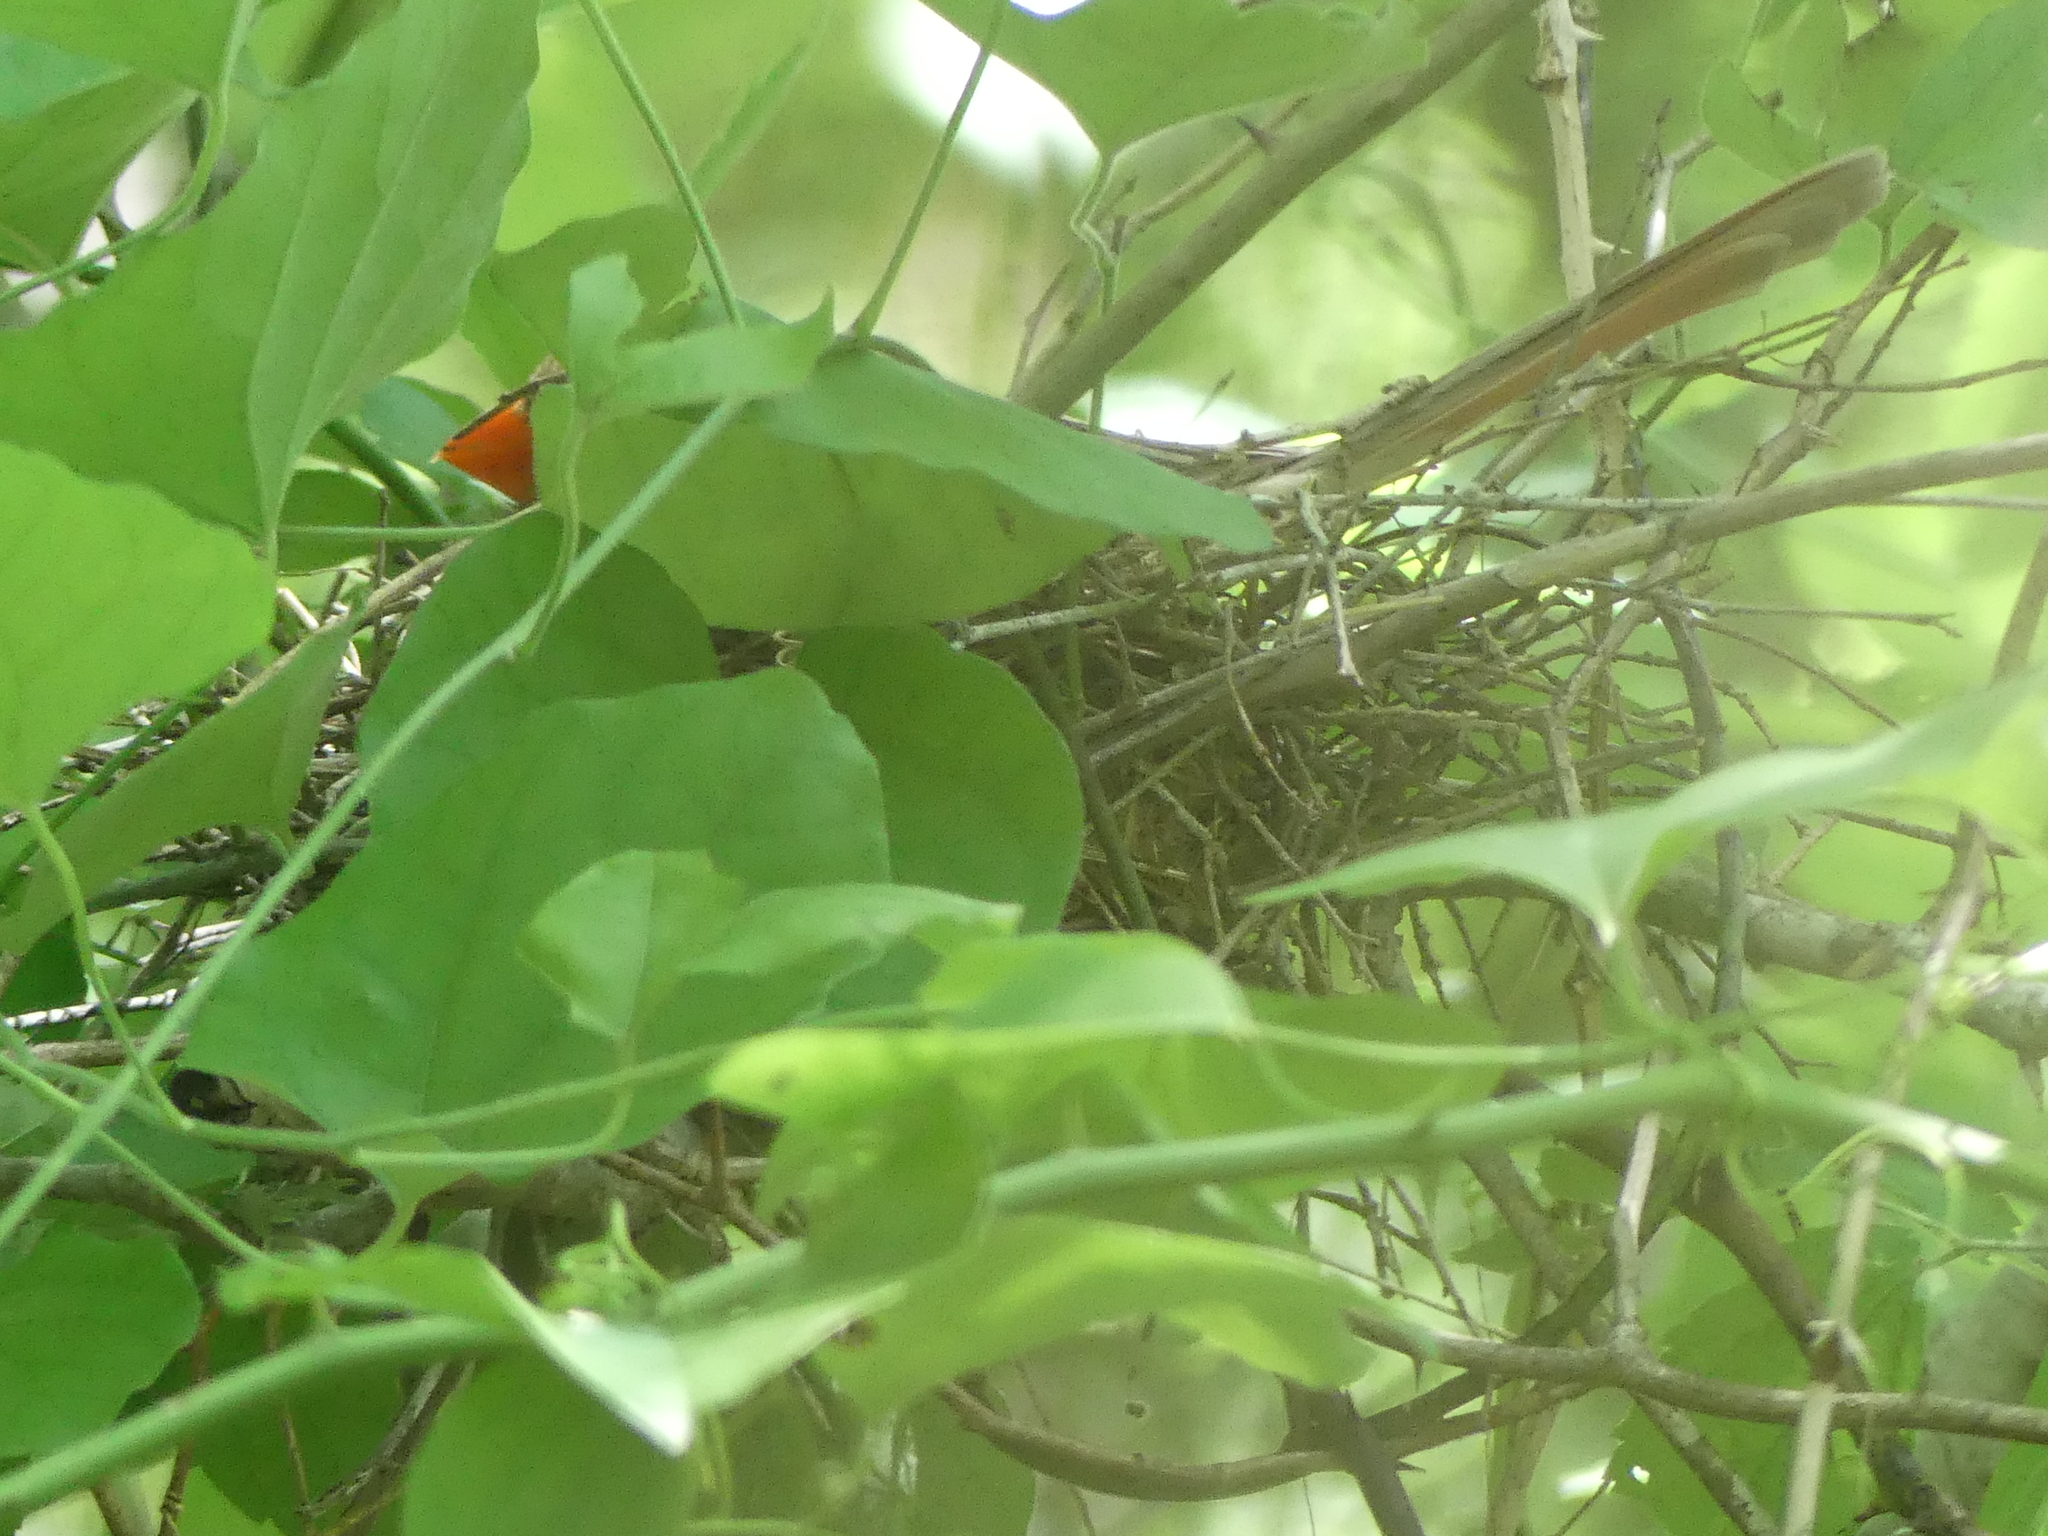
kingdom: Animalia
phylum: Chordata
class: Aves
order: Passeriformes
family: Cardinalidae
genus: Cardinalis
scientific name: Cardinalis cardinalis
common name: Northern cardinal
